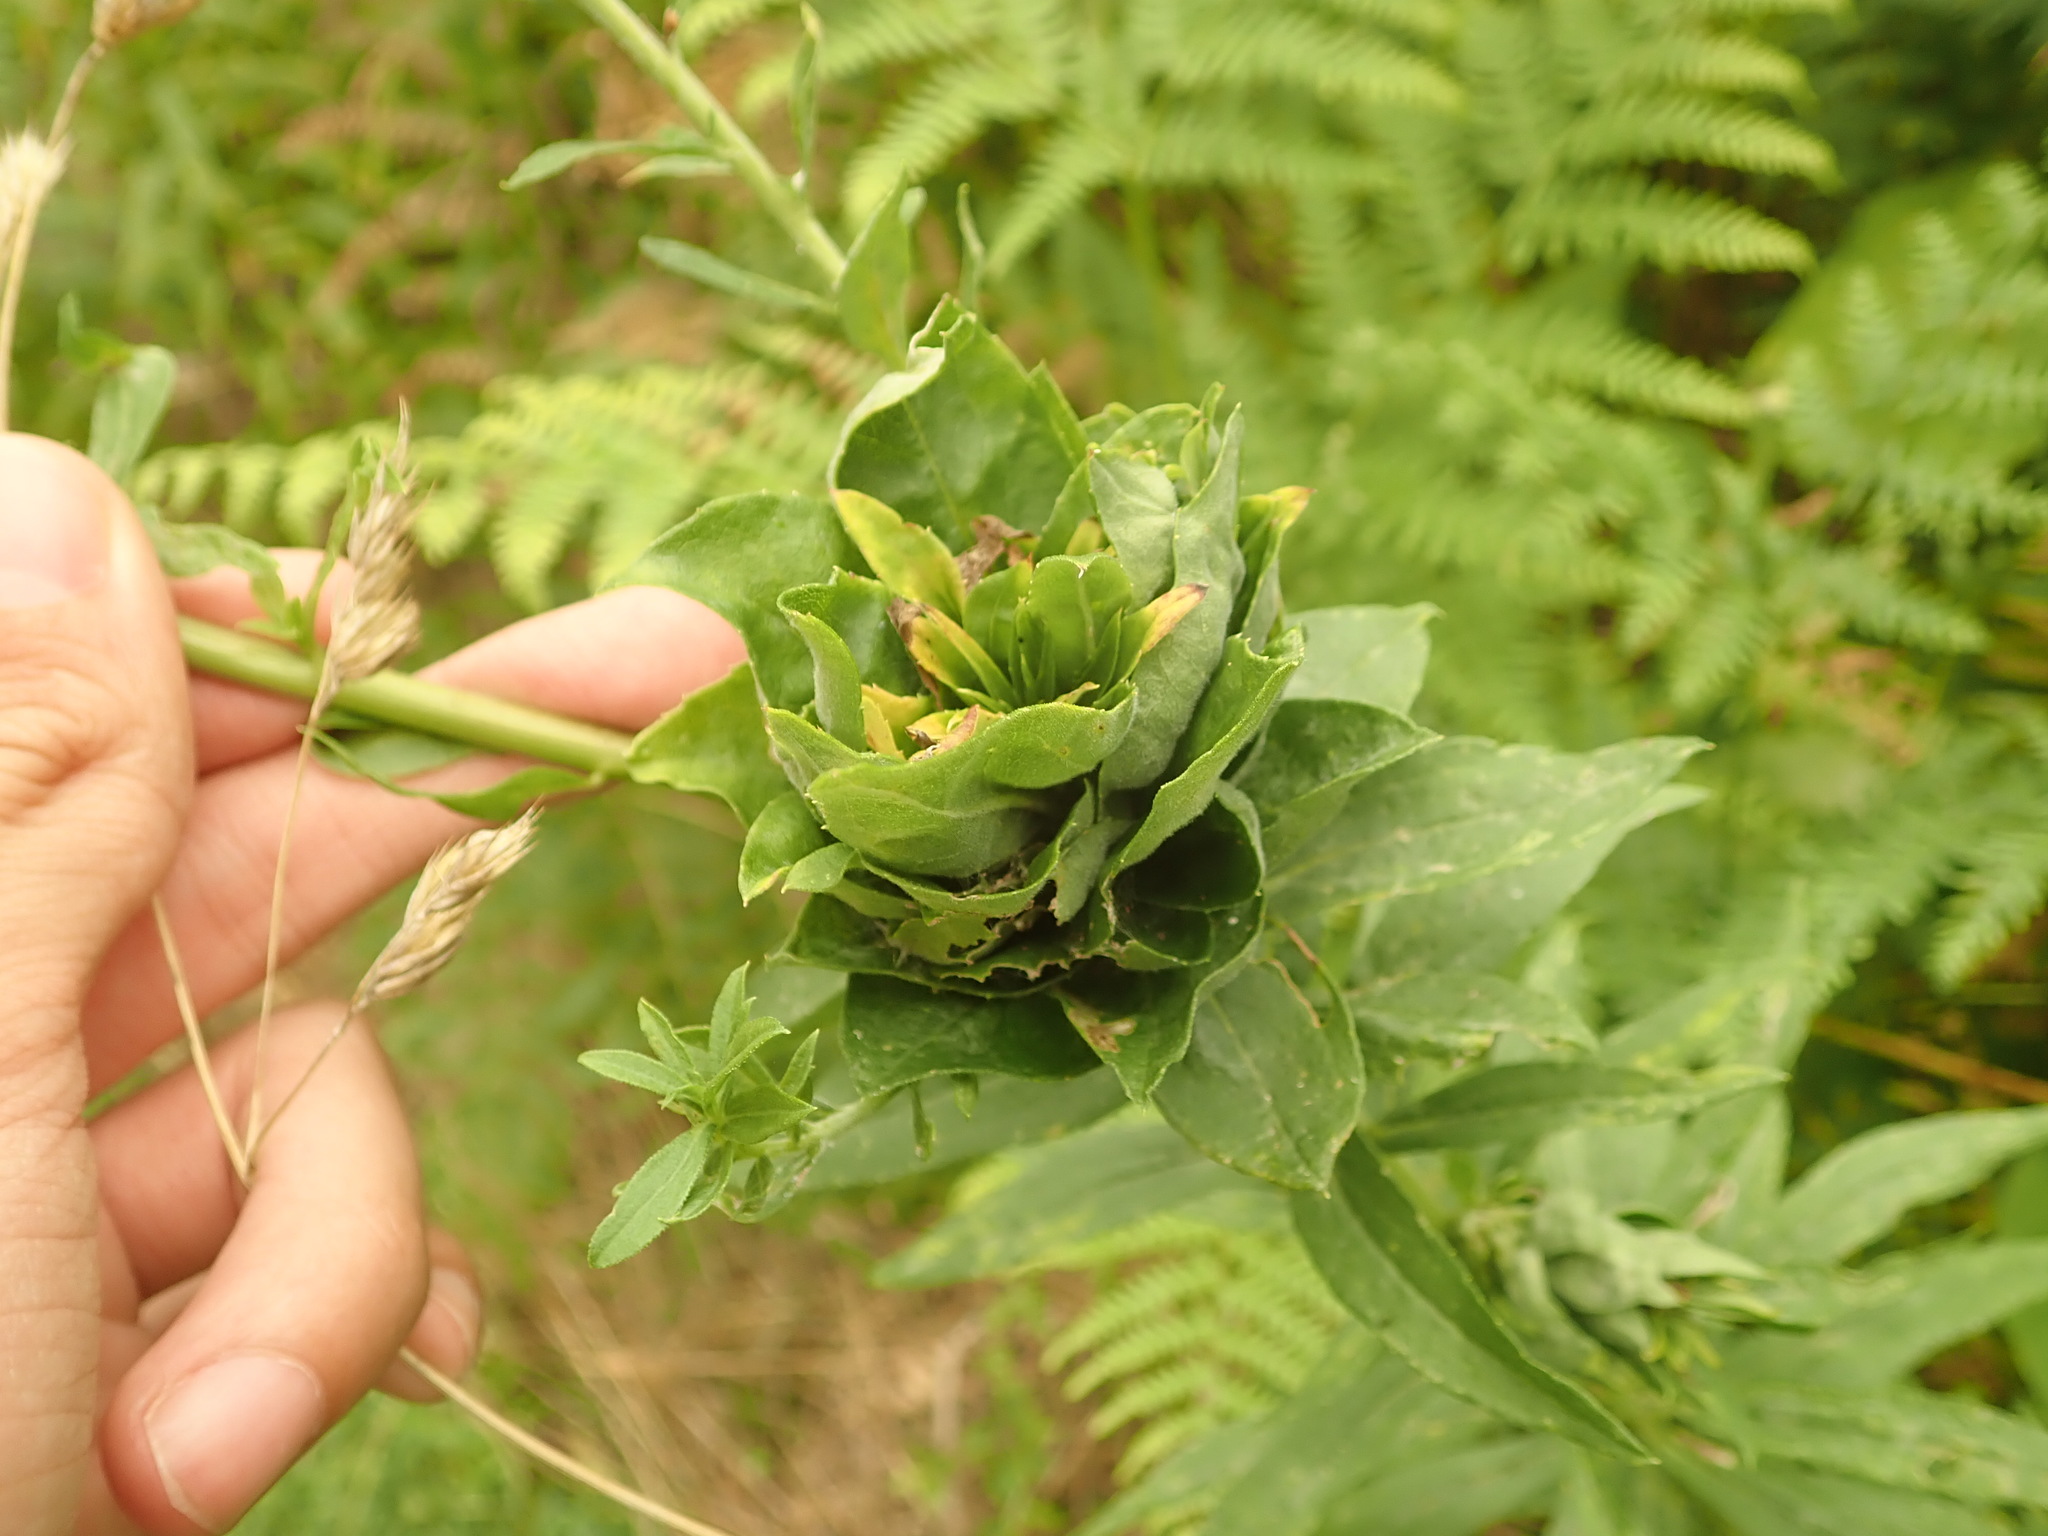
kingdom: Animalia
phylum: Arthropoda
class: Insecta
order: Diptera
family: Cecidomyiidae
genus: Rhopalomyia
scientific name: Rhopalomyia solidaginis
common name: Goldenrod bunch gall midge
